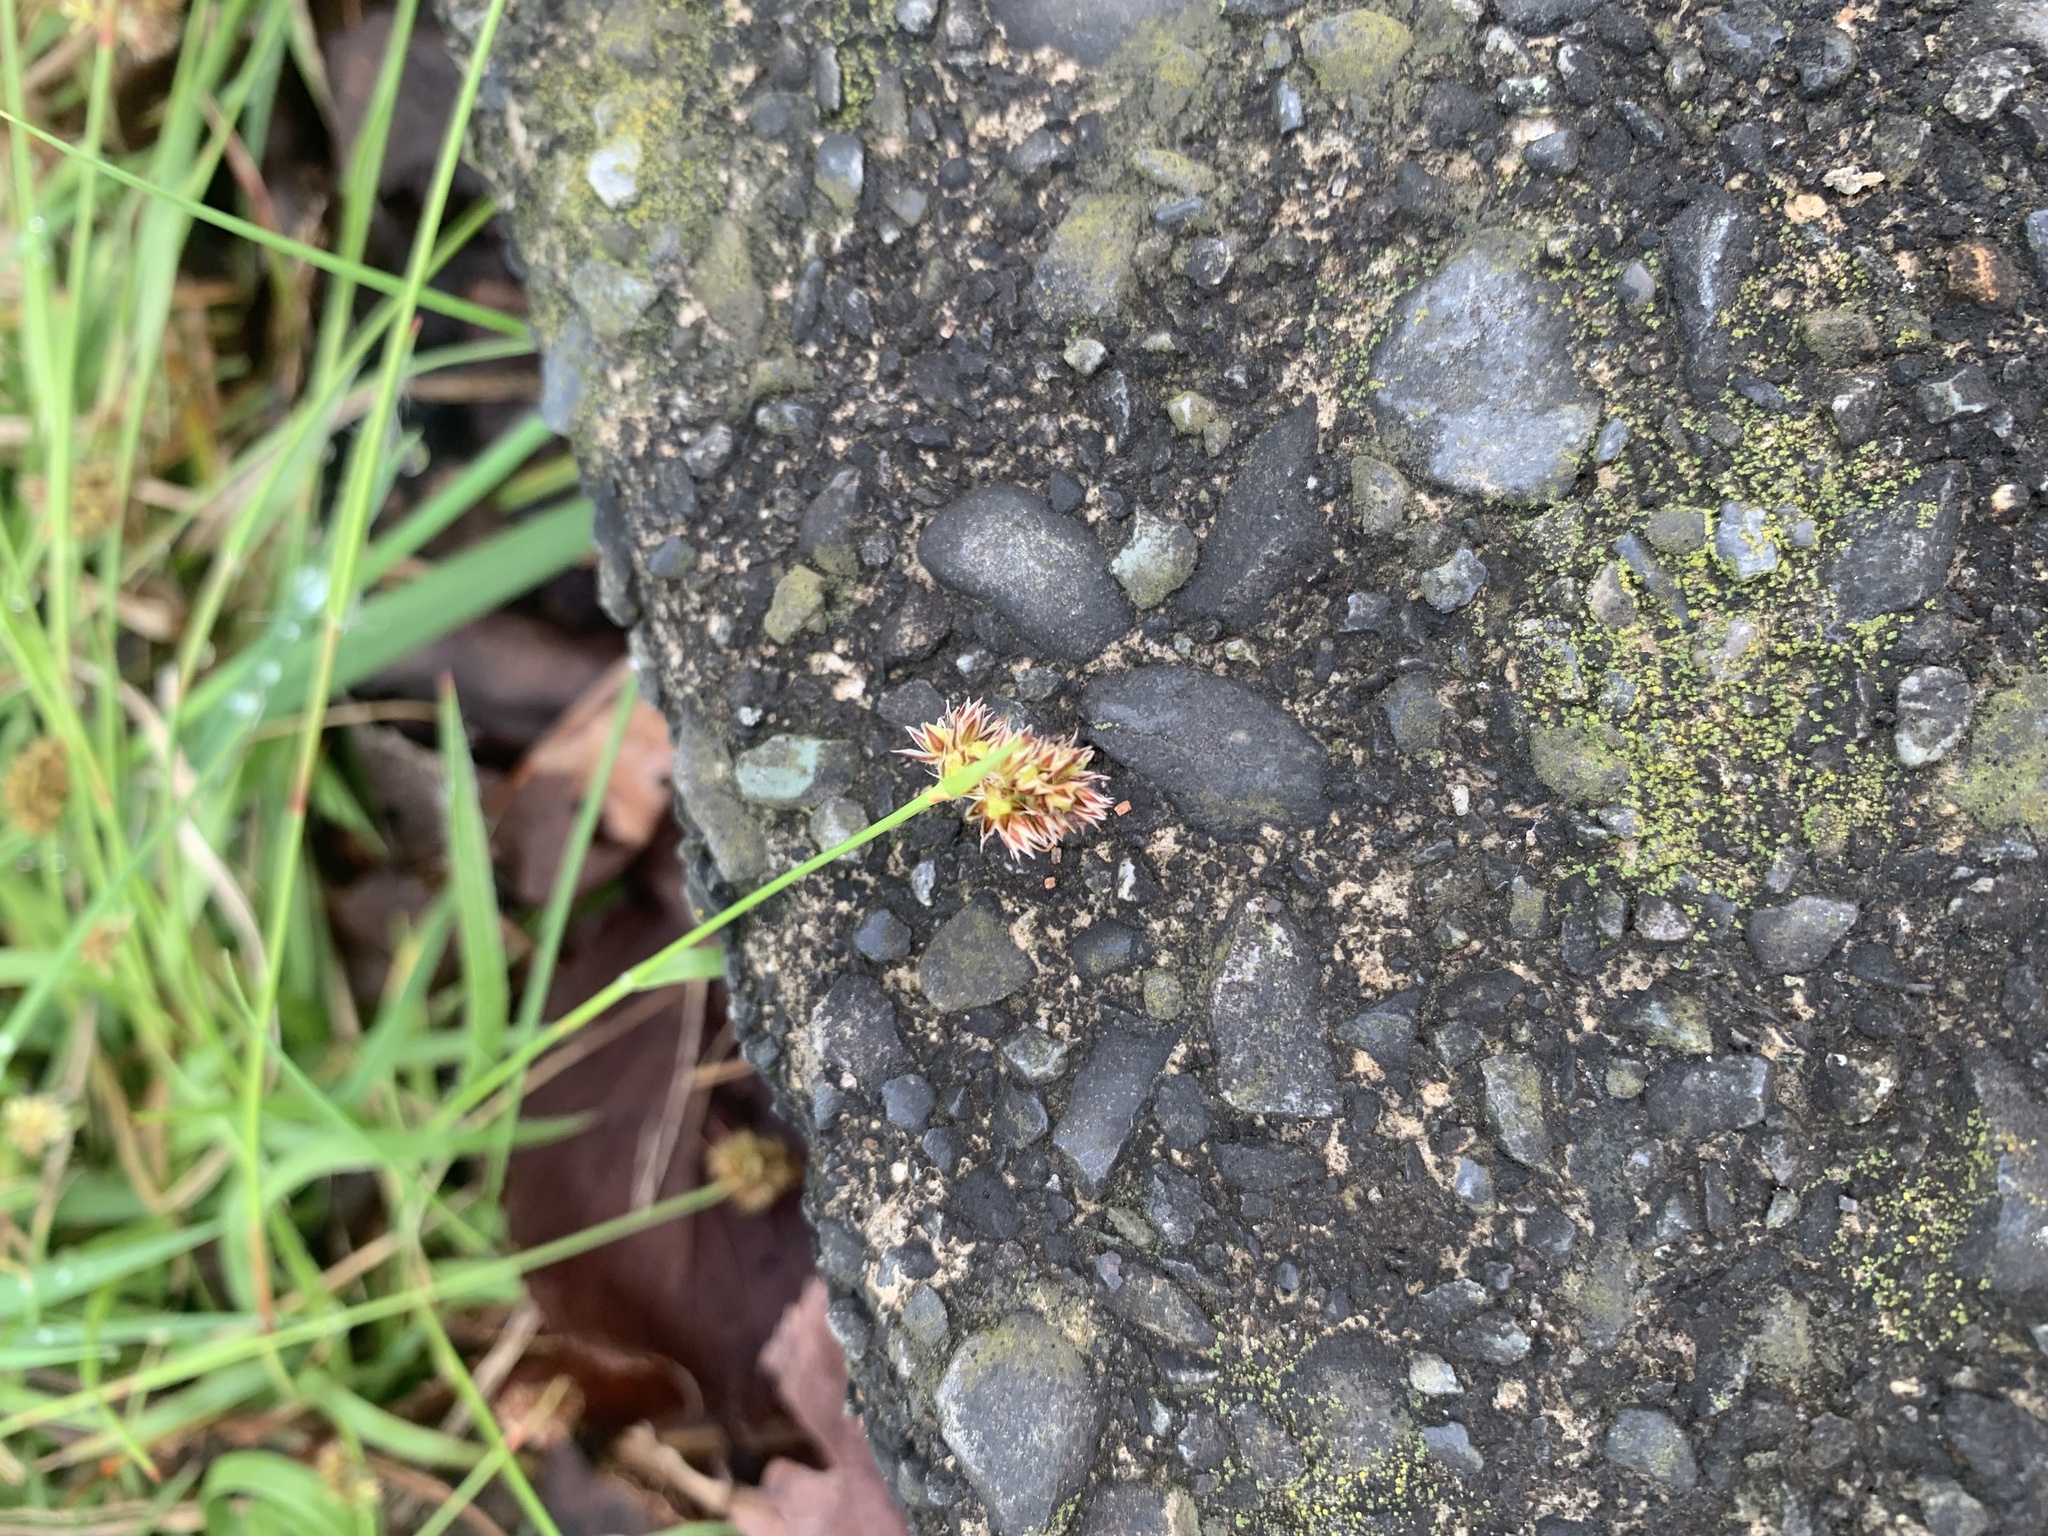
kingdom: Plantae
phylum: Tracheophyta
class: Liliopsida
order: Poales
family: Juncaceae
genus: Luzula
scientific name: Luzula capitata
